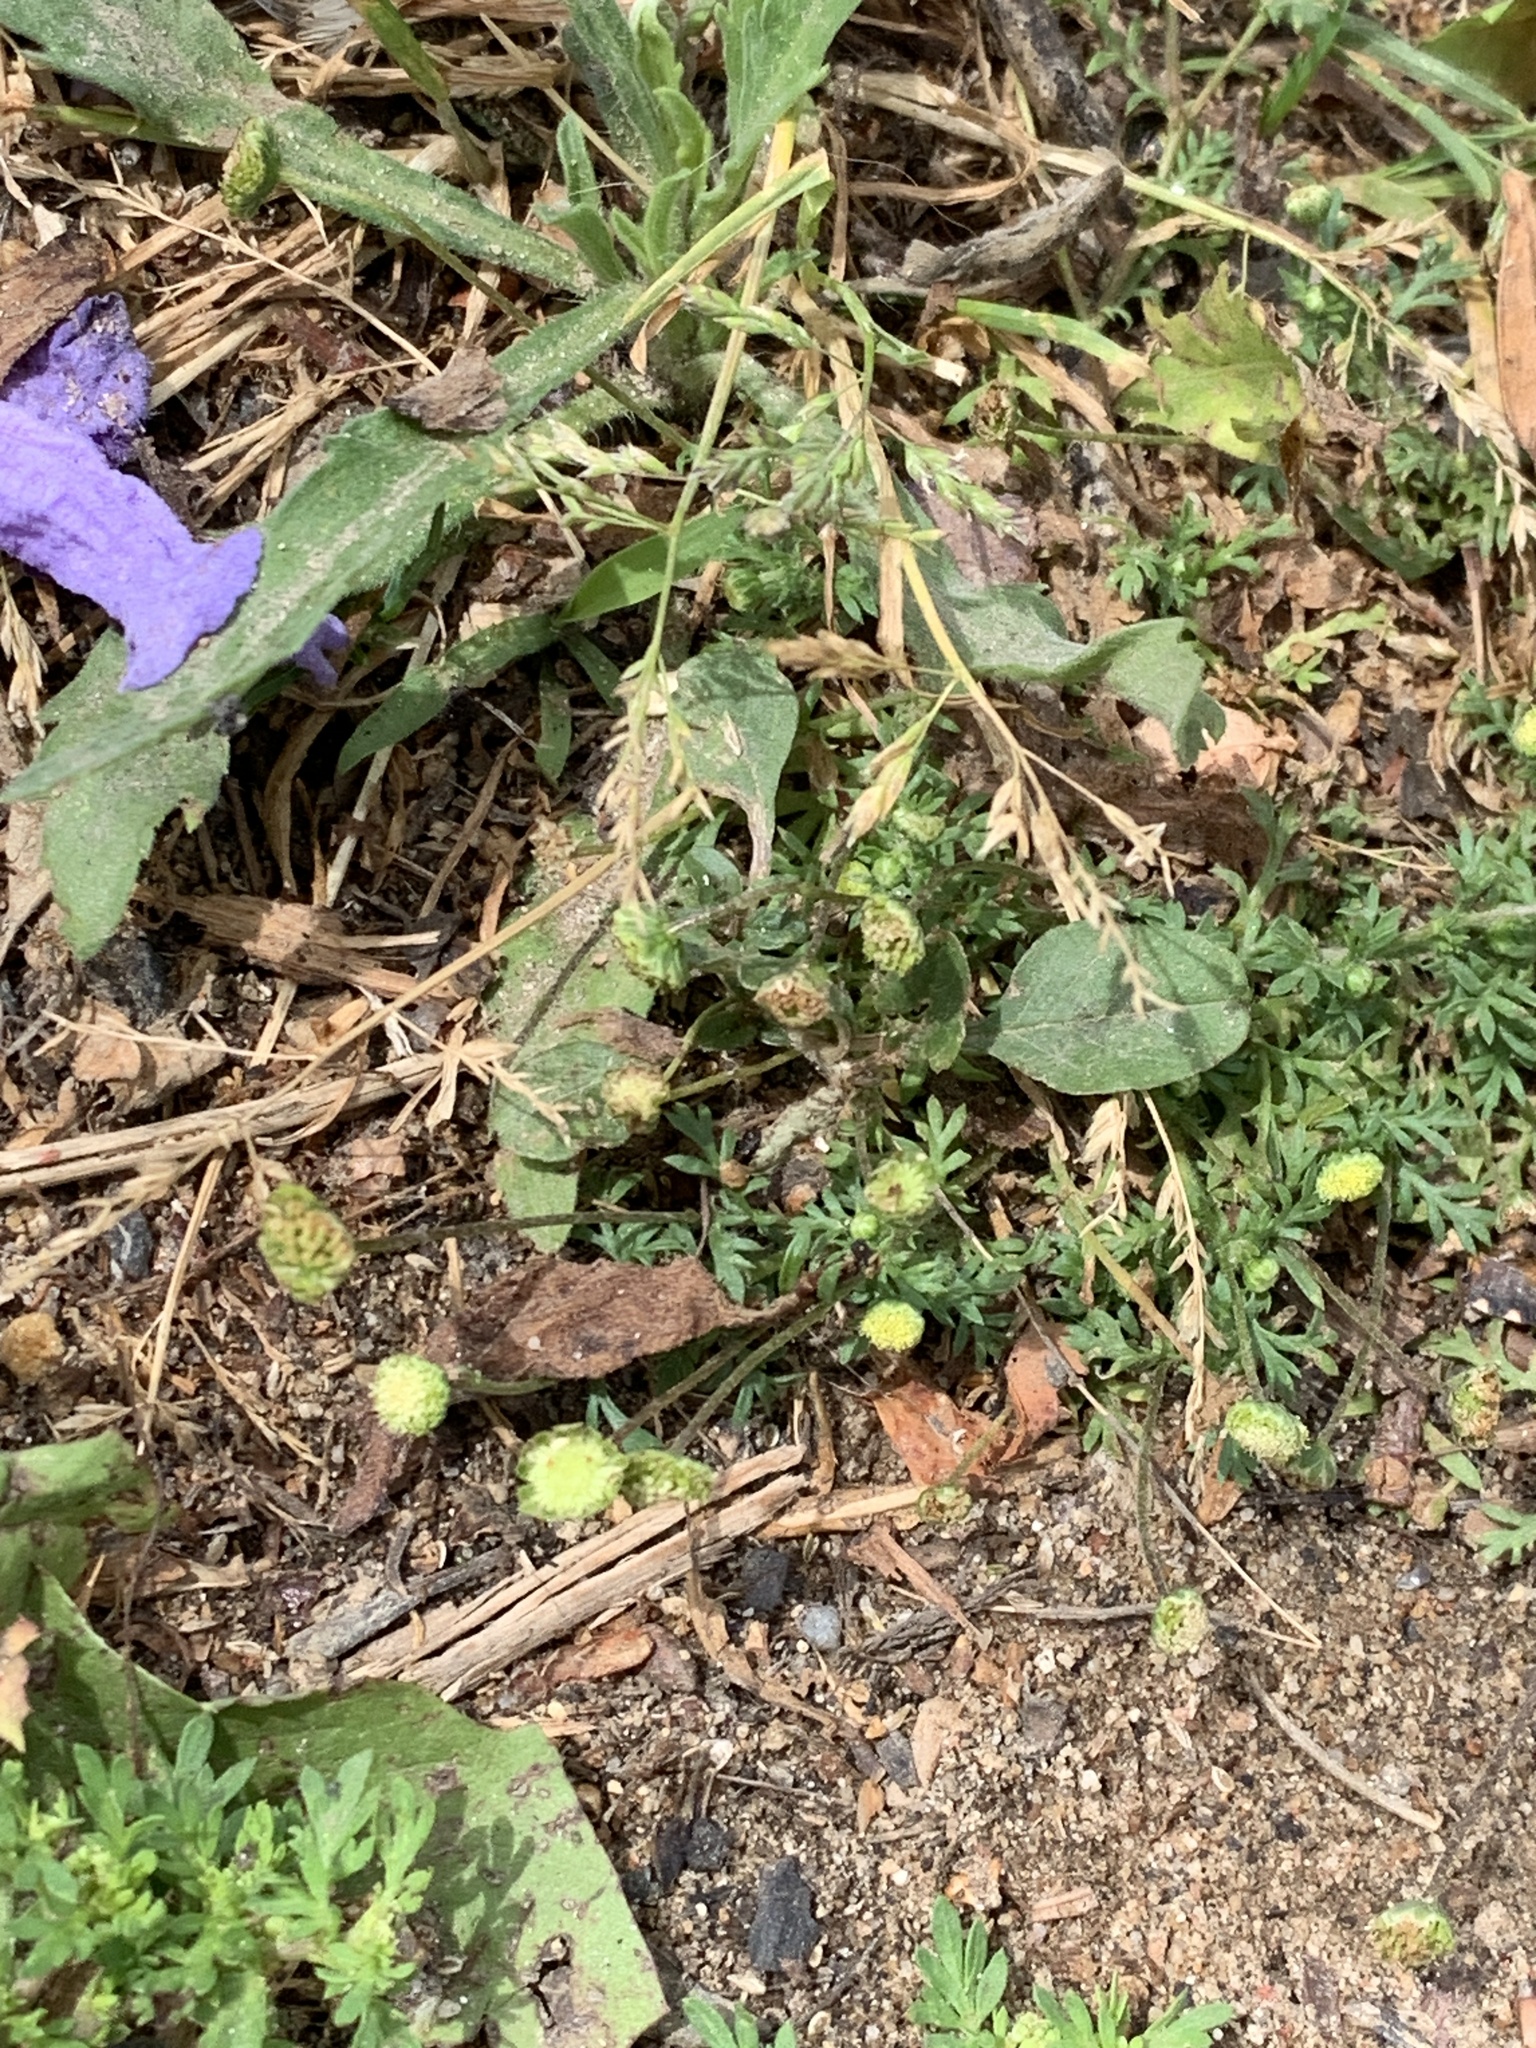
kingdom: Plantae
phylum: Tracheophyta
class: Magnoliopsida
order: Asterales
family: Asteraceae
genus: Cotula
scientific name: Cotula australis
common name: Australian waterbuttons
